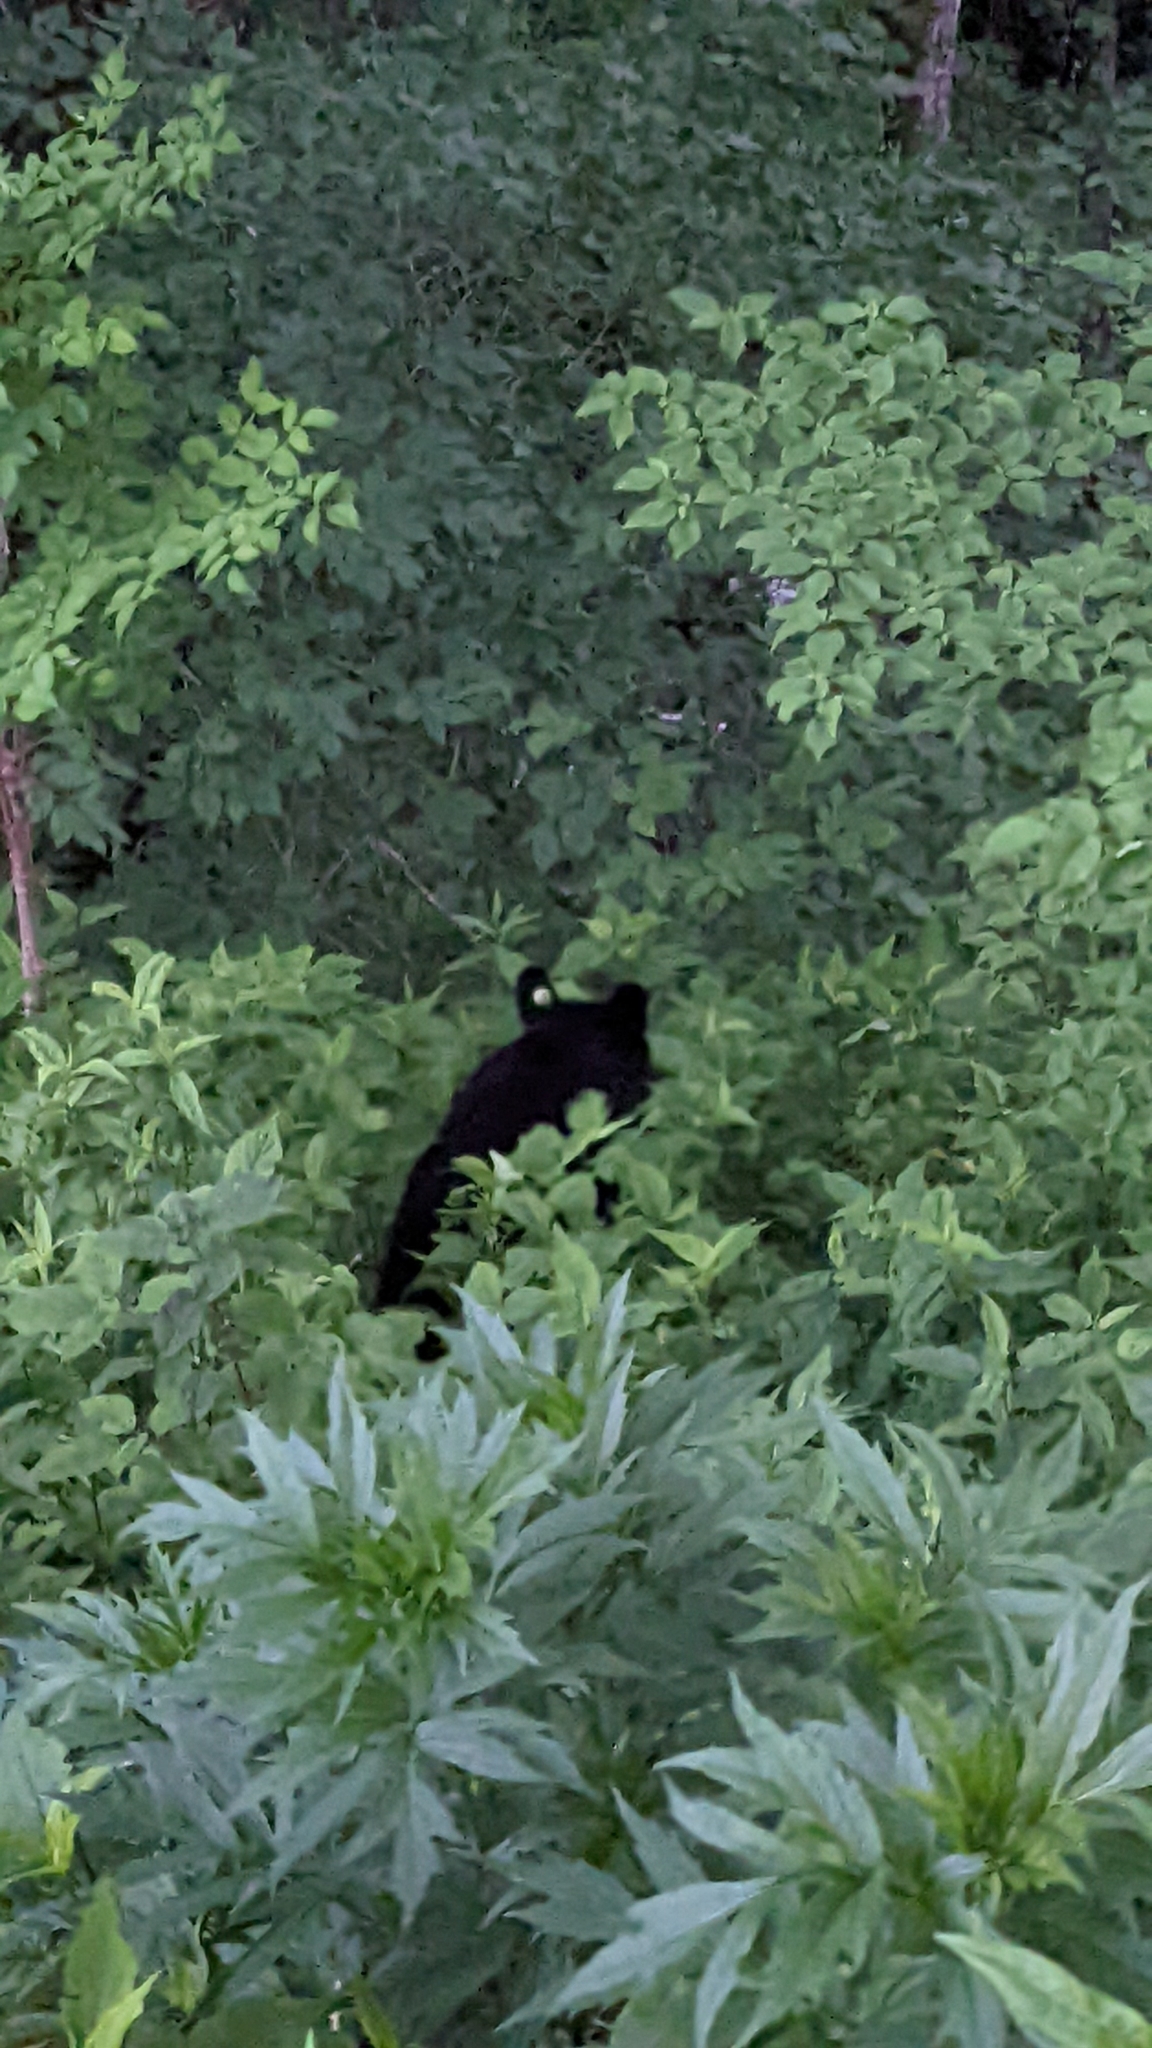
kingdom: Animalia
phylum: Chordata
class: Mammalia
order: Carnivora
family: Ursidae
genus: Ursus
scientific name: Ursus americanus
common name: American black bear
